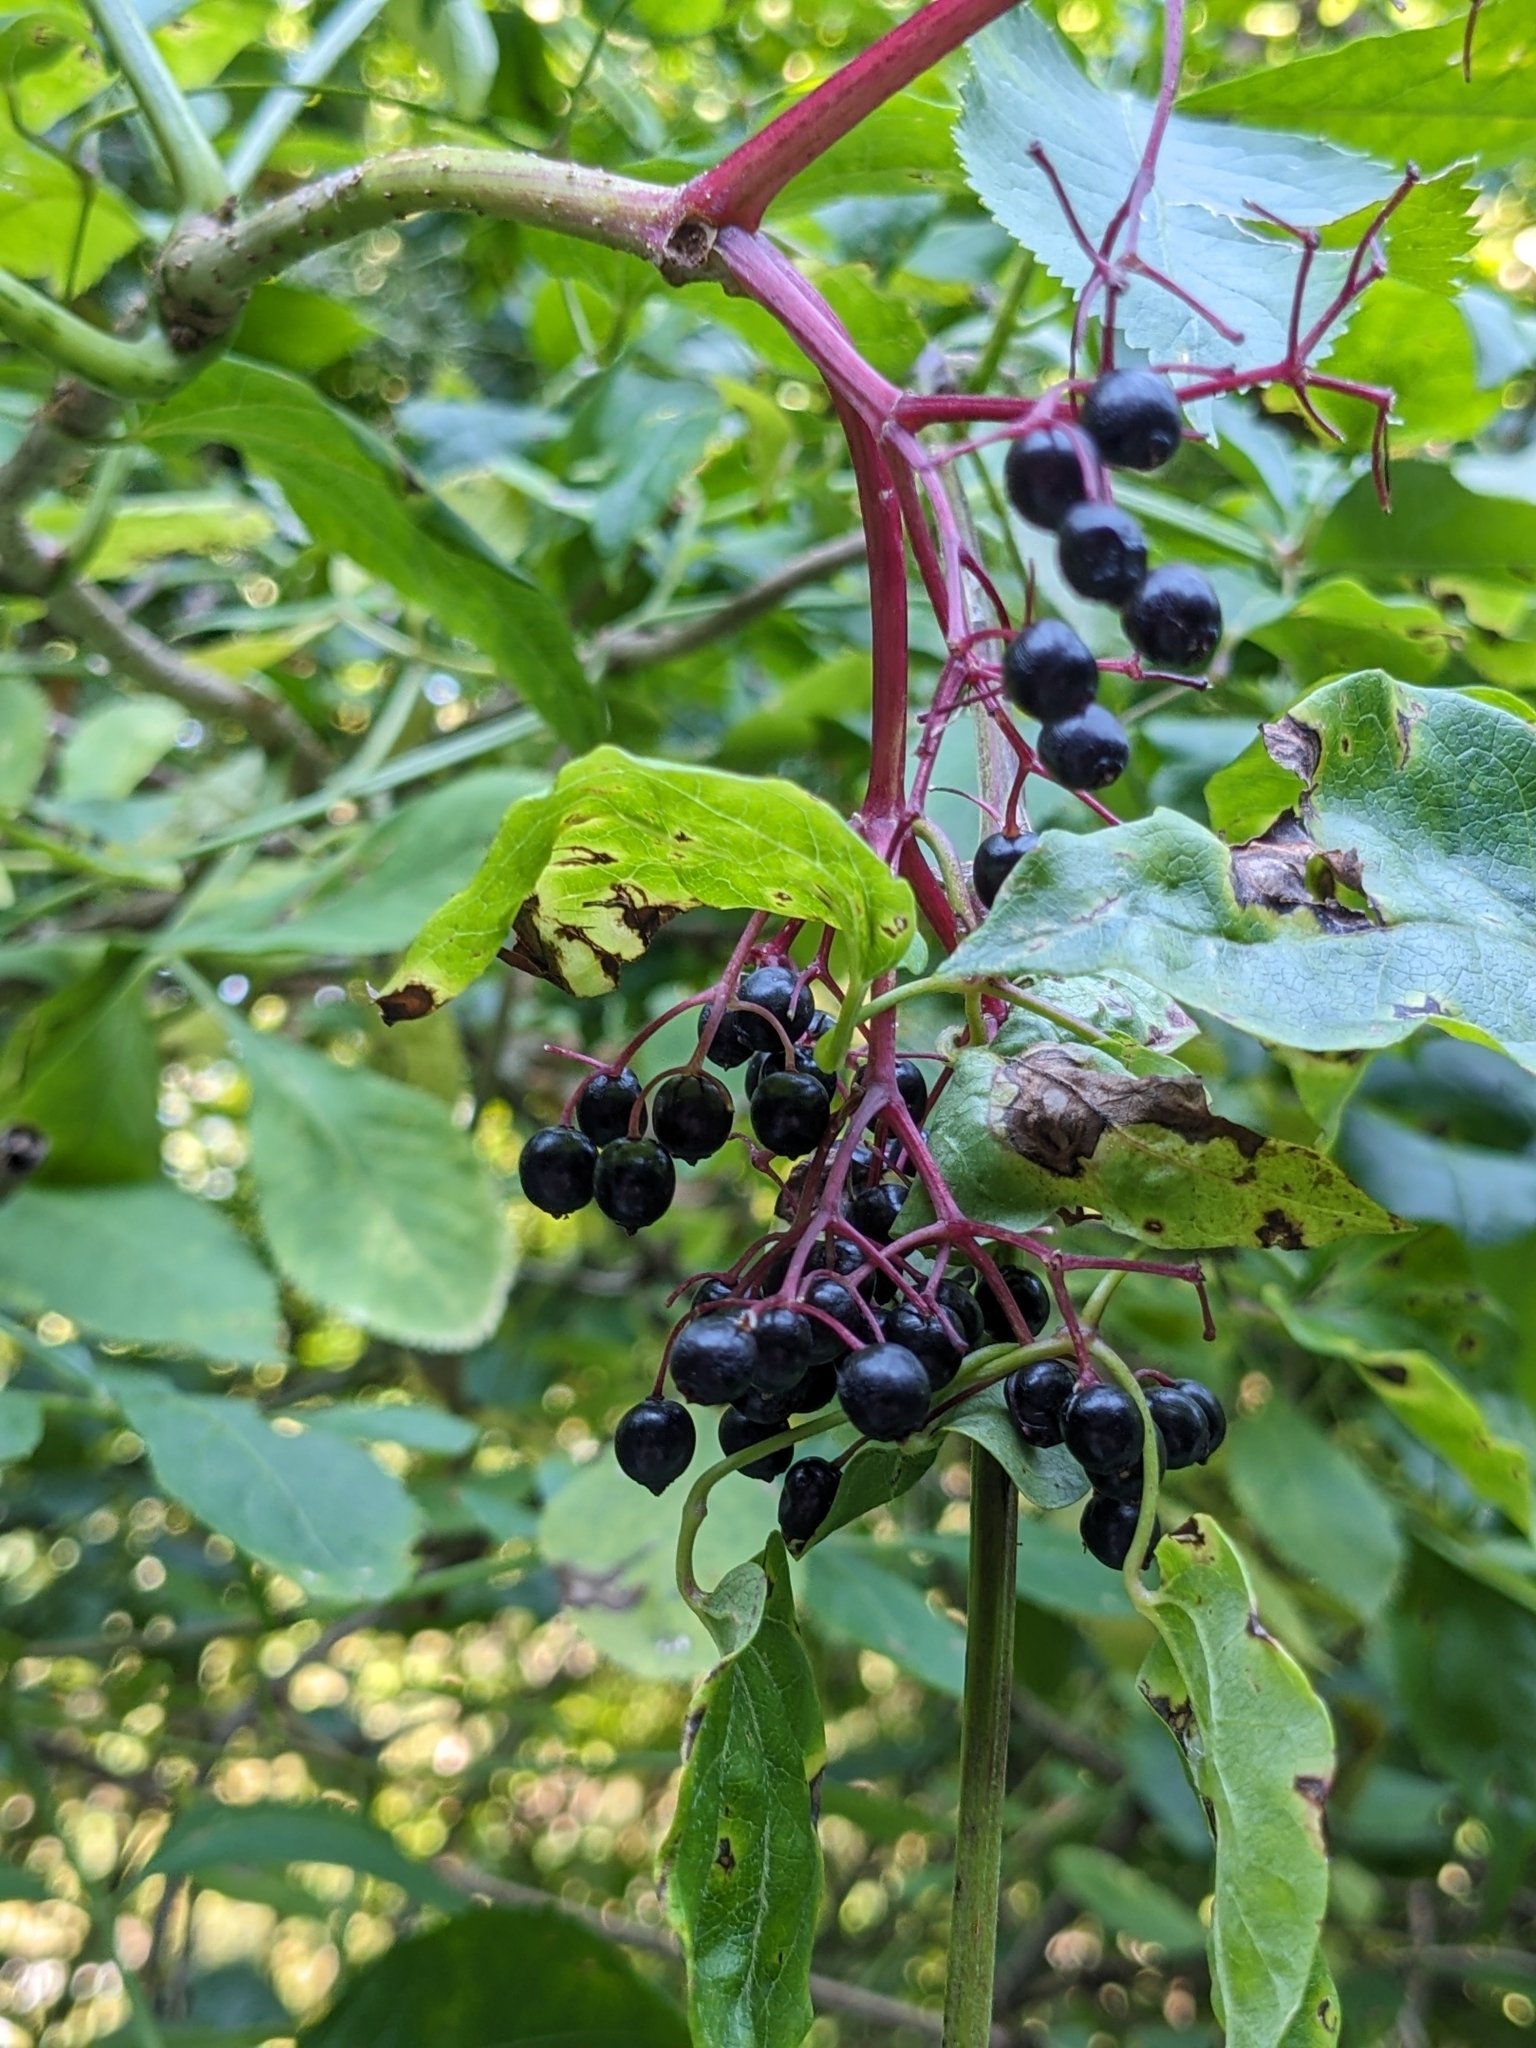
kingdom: Plantae
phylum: Tracheophyta
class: Magnoliopsida
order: Dipsacales
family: Viburnaceae
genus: Sambucus
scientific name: Sambucus nigra
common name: Elder
